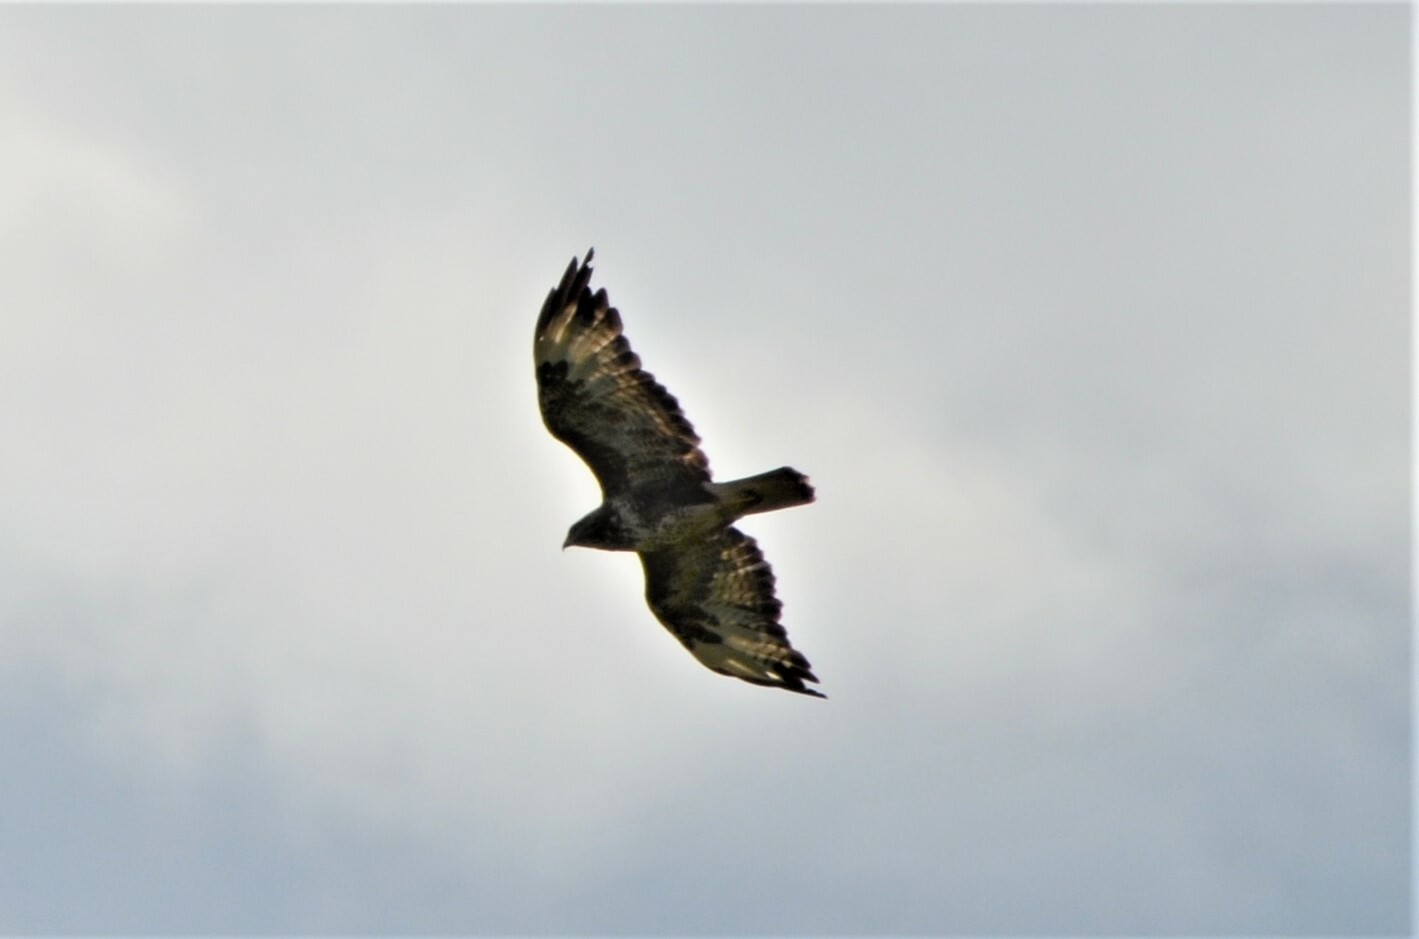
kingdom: Animalia
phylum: Chordata
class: Aves
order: Accipitriformes
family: Accipitridae
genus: Buteo
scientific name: Buteo buteo
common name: Common buzzard
